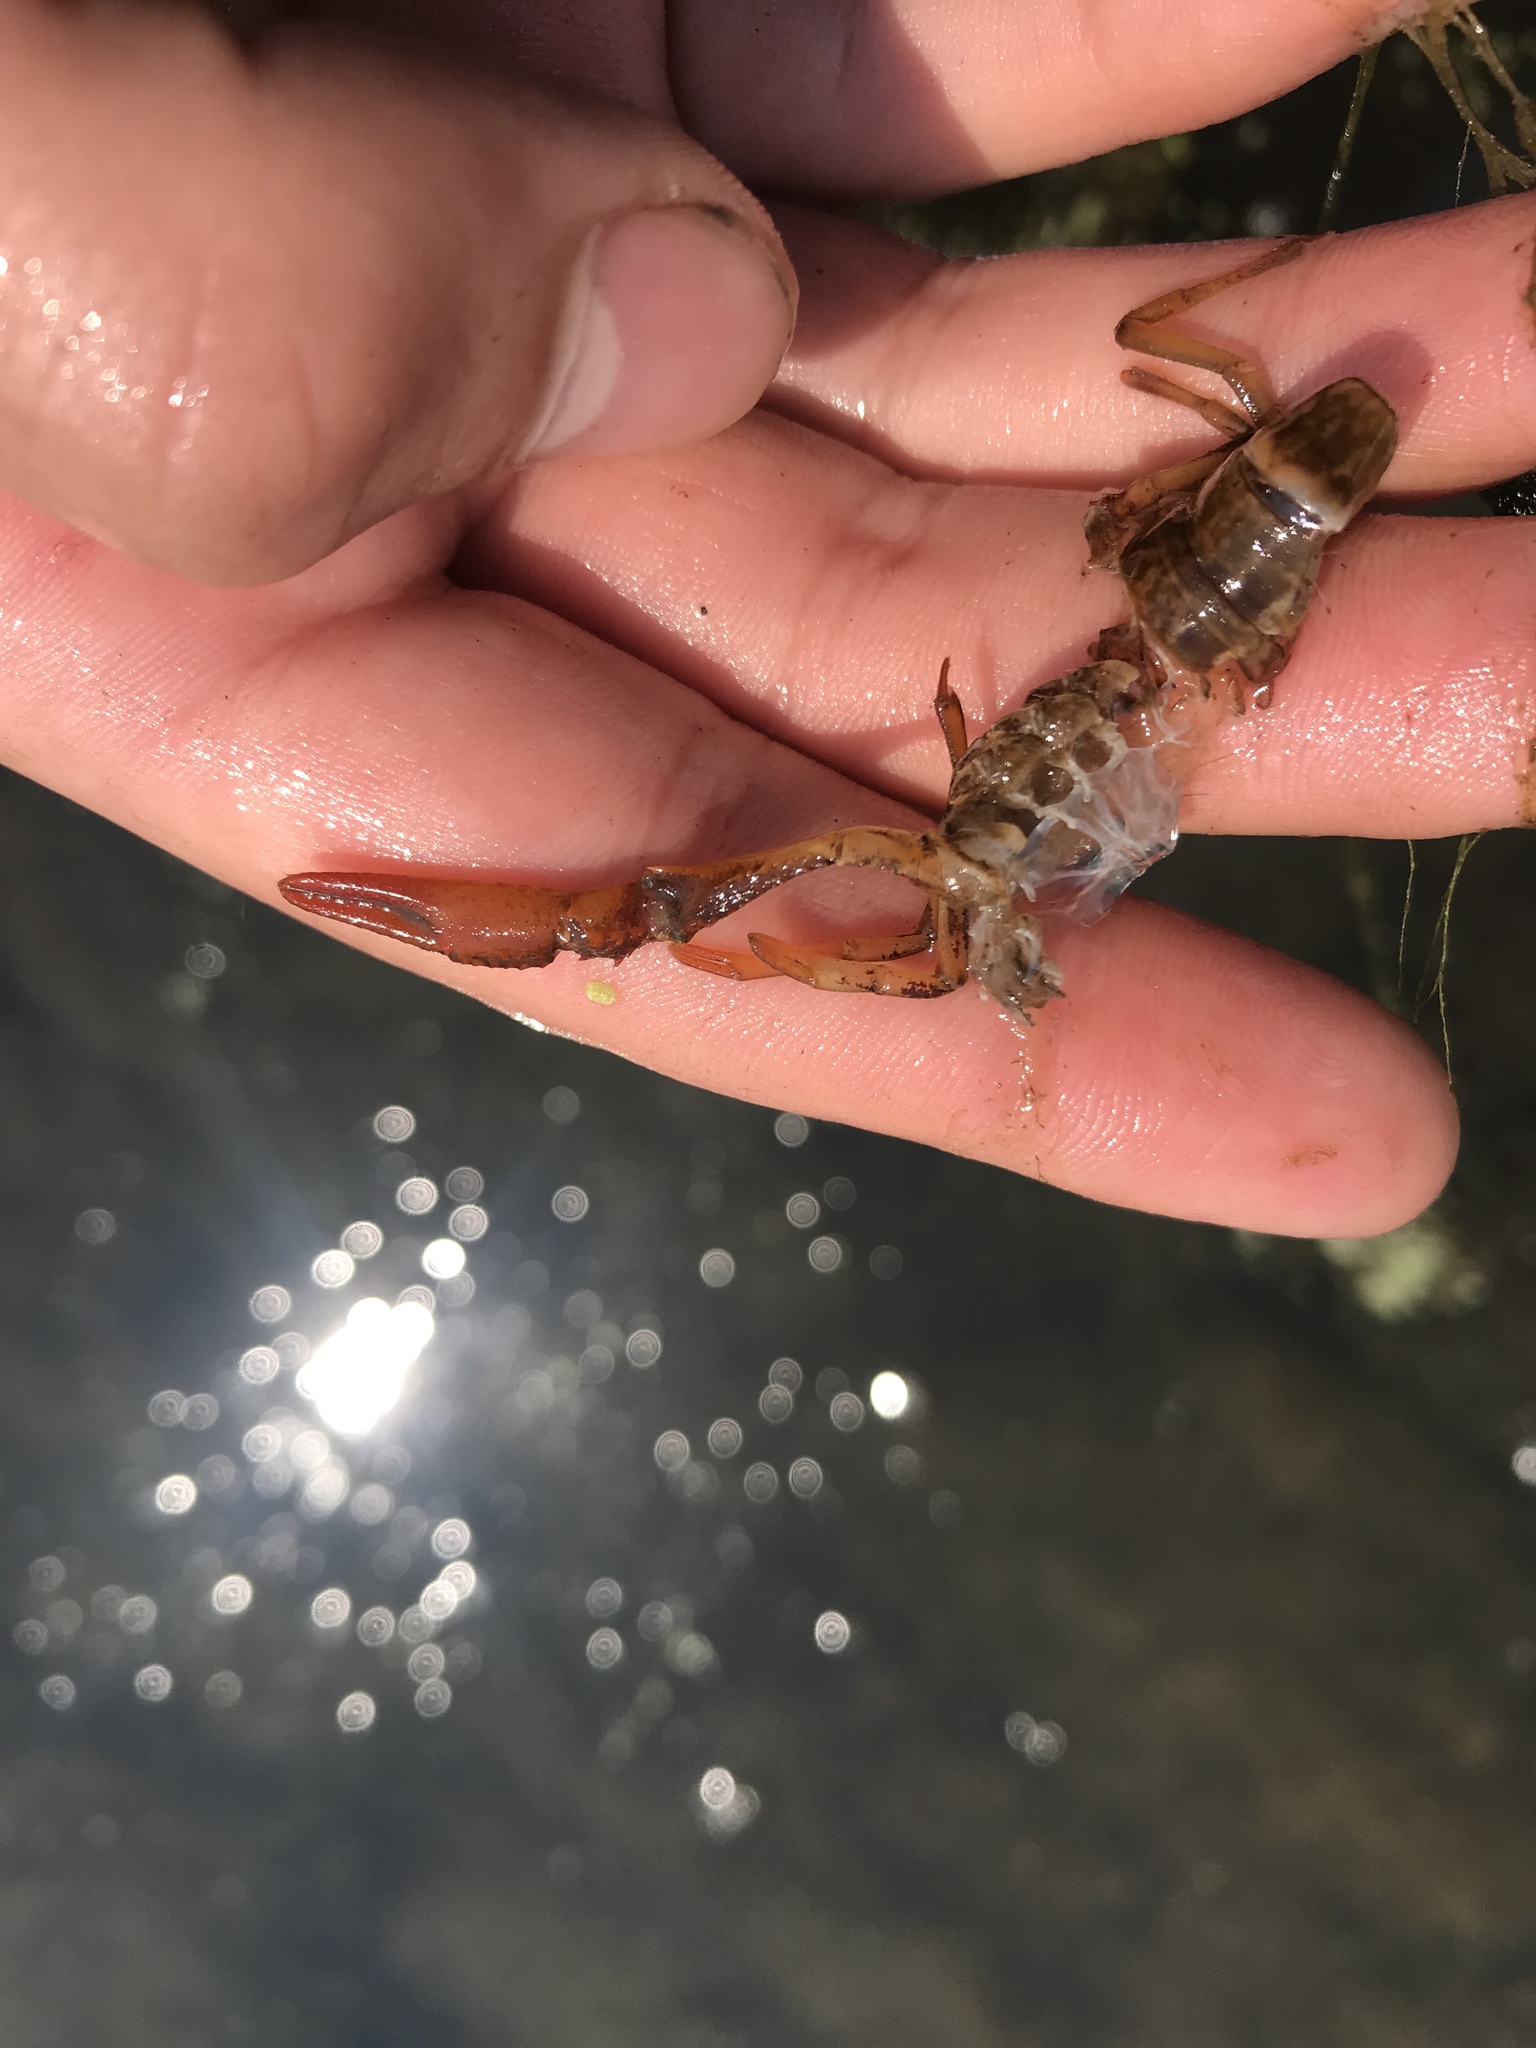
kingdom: Animalia
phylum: Arthropoda
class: Malacostraca
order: Decapoda
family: Cambaridae
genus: Procambarus
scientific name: Procambarus clarkii
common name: Red swamp crayfish
